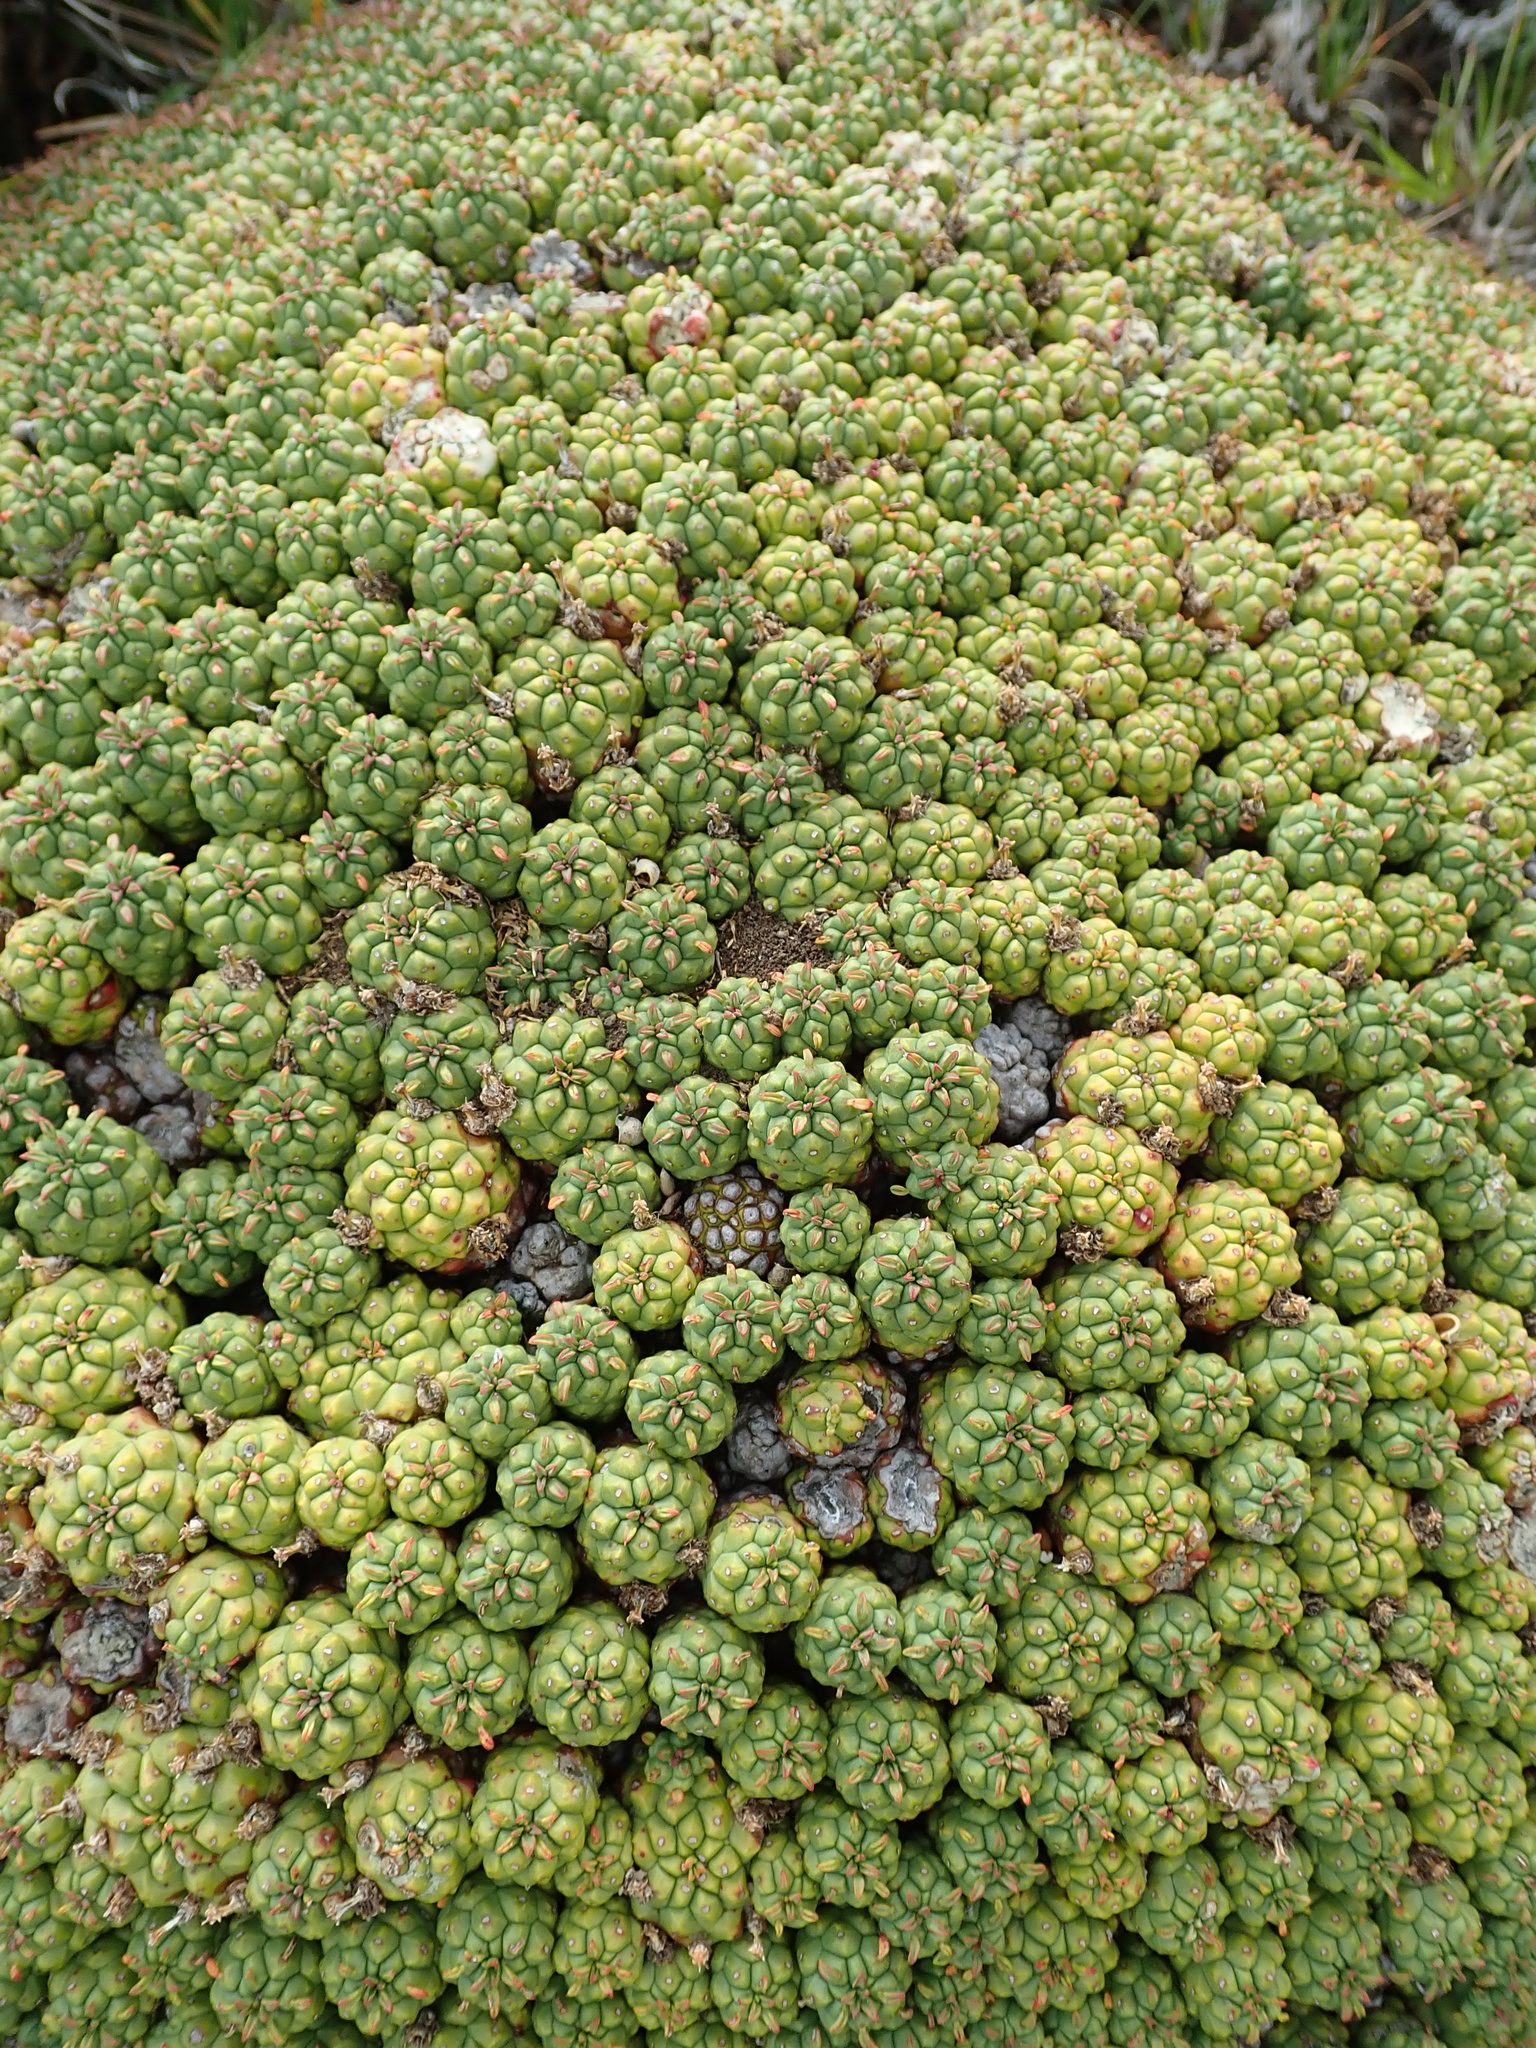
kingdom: Plantae
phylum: Tracheophyta
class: Magnoliopsida
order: Malpighiales
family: Euphorbiaceae
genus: Euphorbia
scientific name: Euphorbia clavarioides
